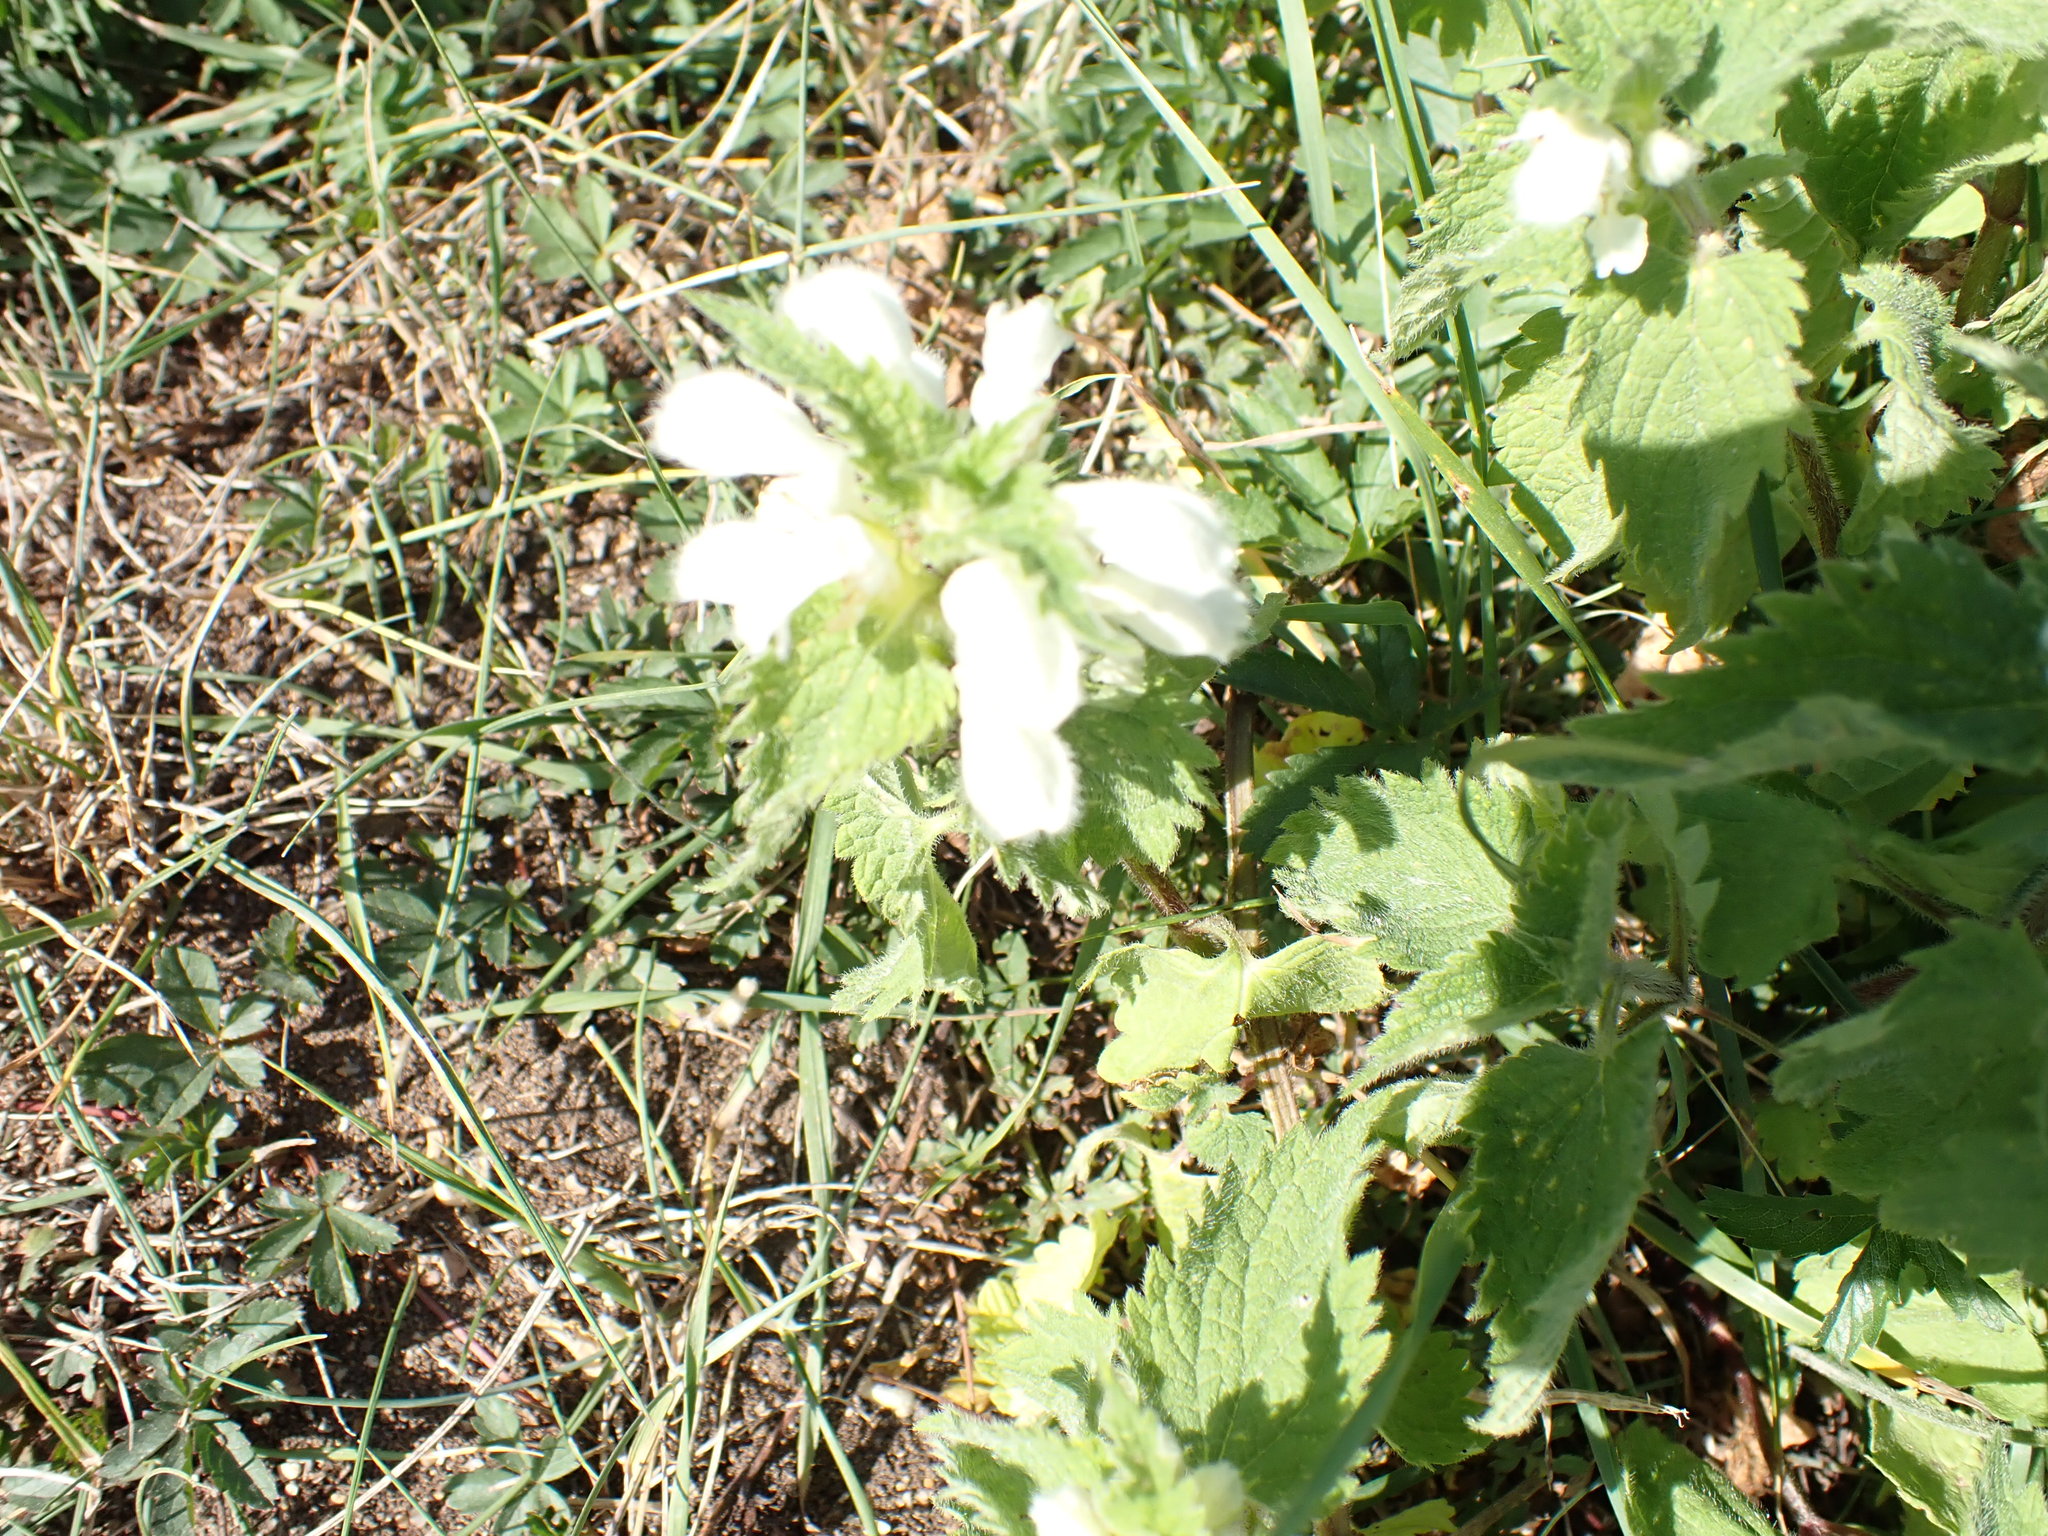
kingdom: Plantae
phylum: Tracheophyta
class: Magnoliopsida
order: Lamiales
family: Lamiaceae
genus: Lamium
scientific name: Lamium album
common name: White dead-nettle
